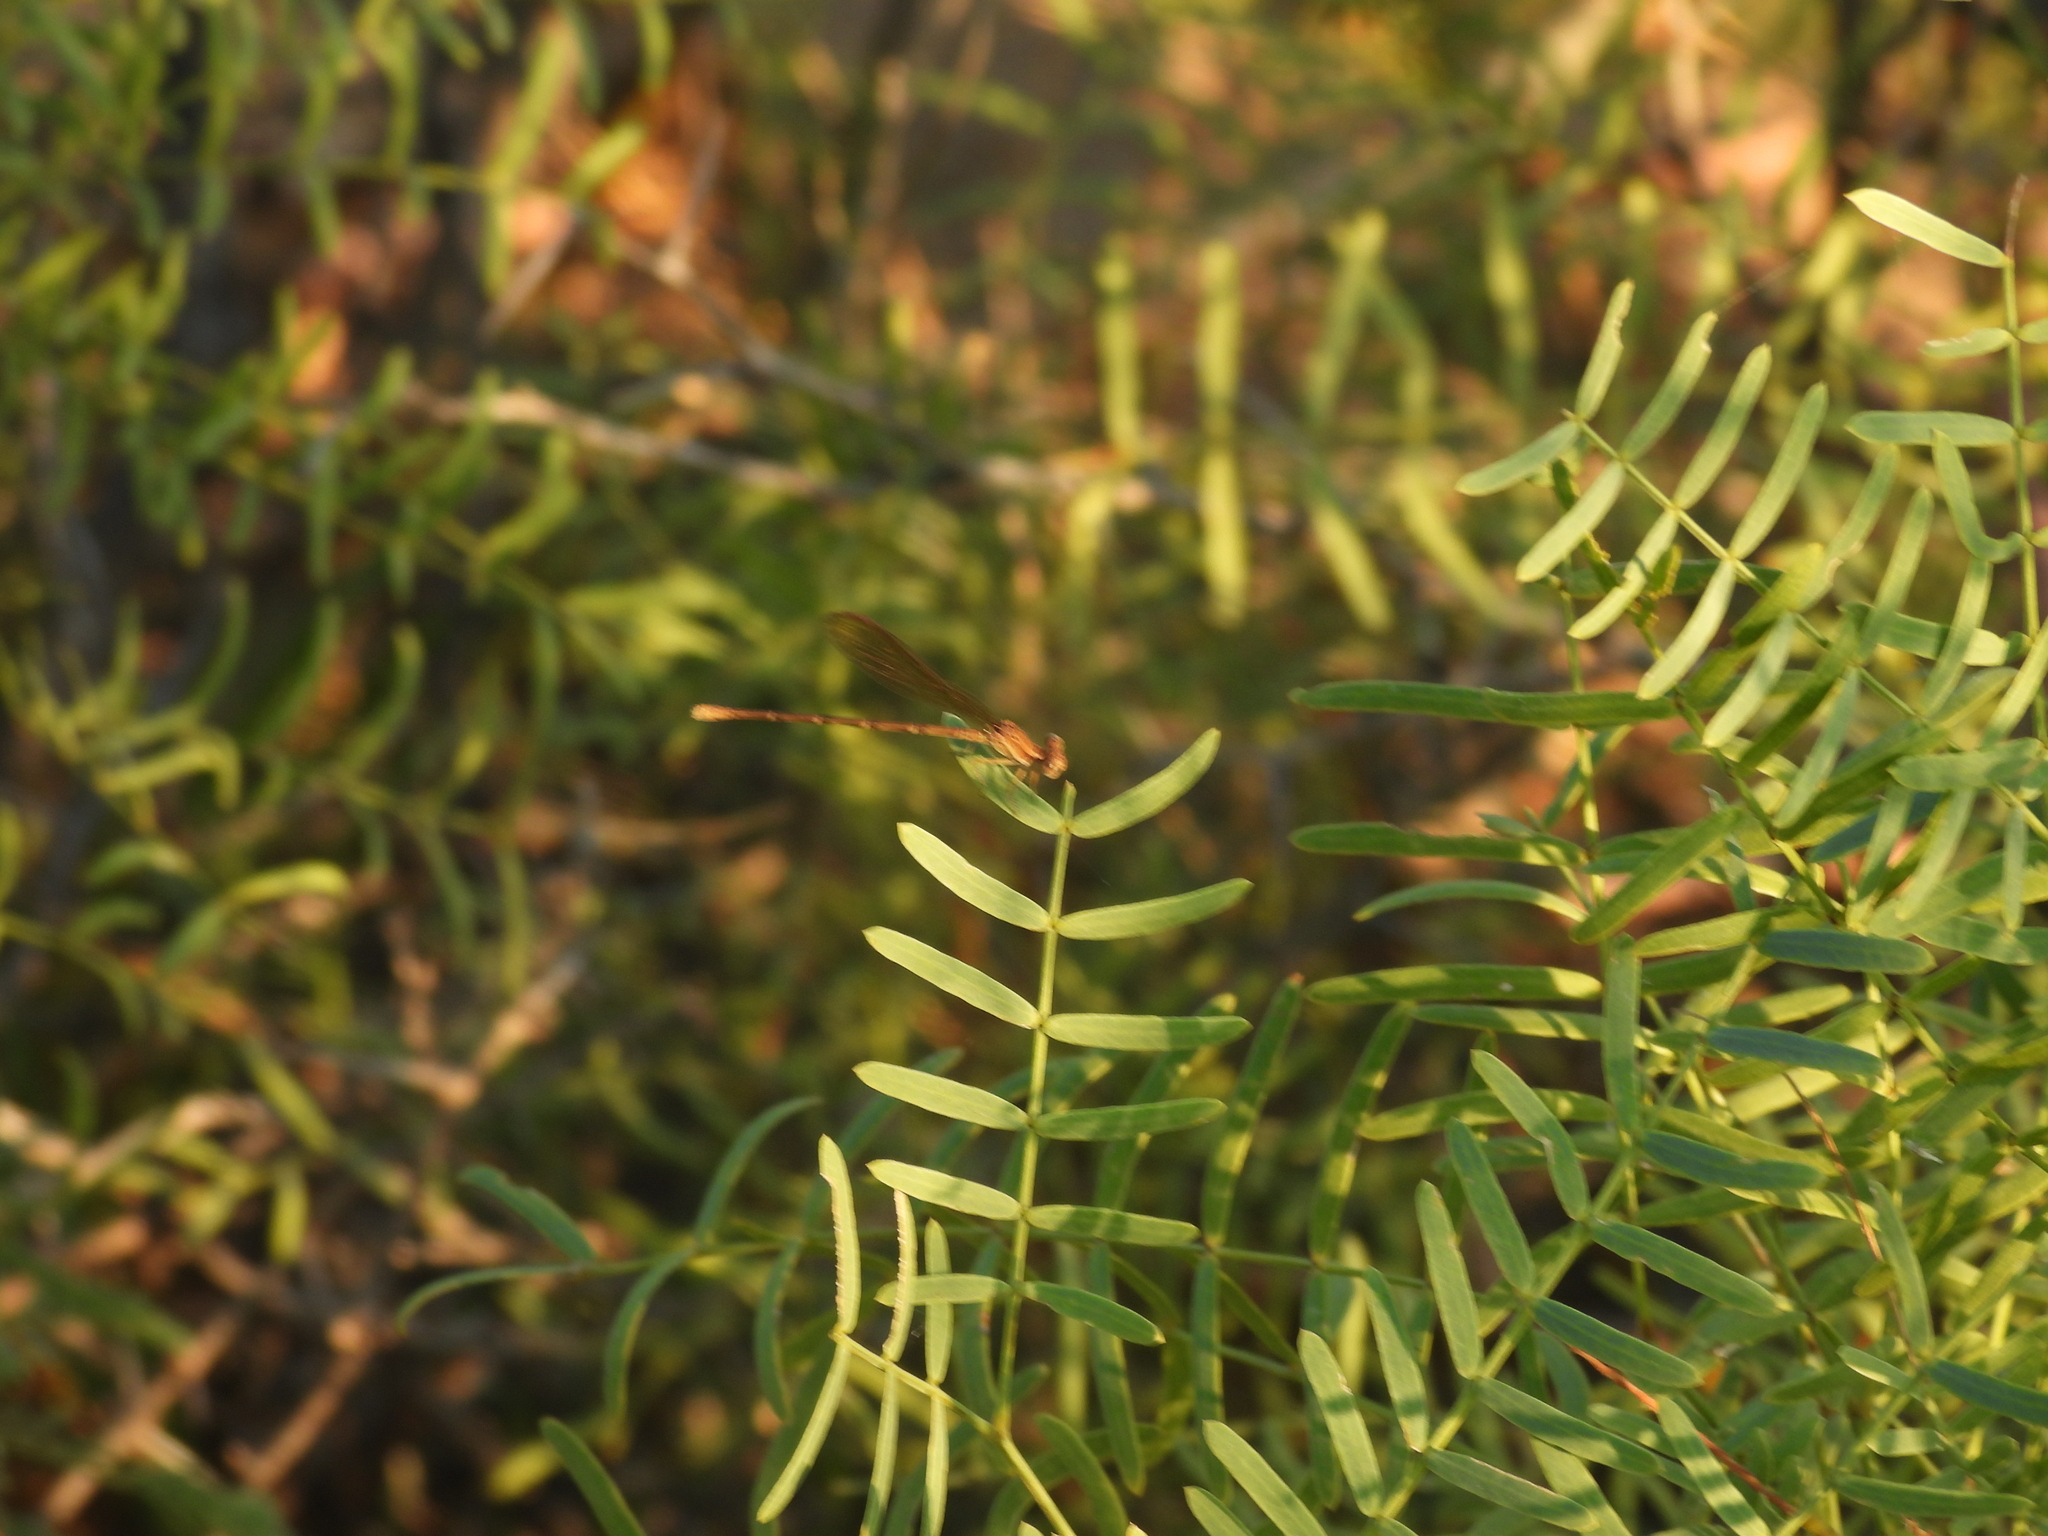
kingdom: Animalia
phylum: Arthropoda
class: Insecta
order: Odonata
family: Coenagrionidae
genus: Argia
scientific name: Argia sedula
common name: Blue-ringed dancer
